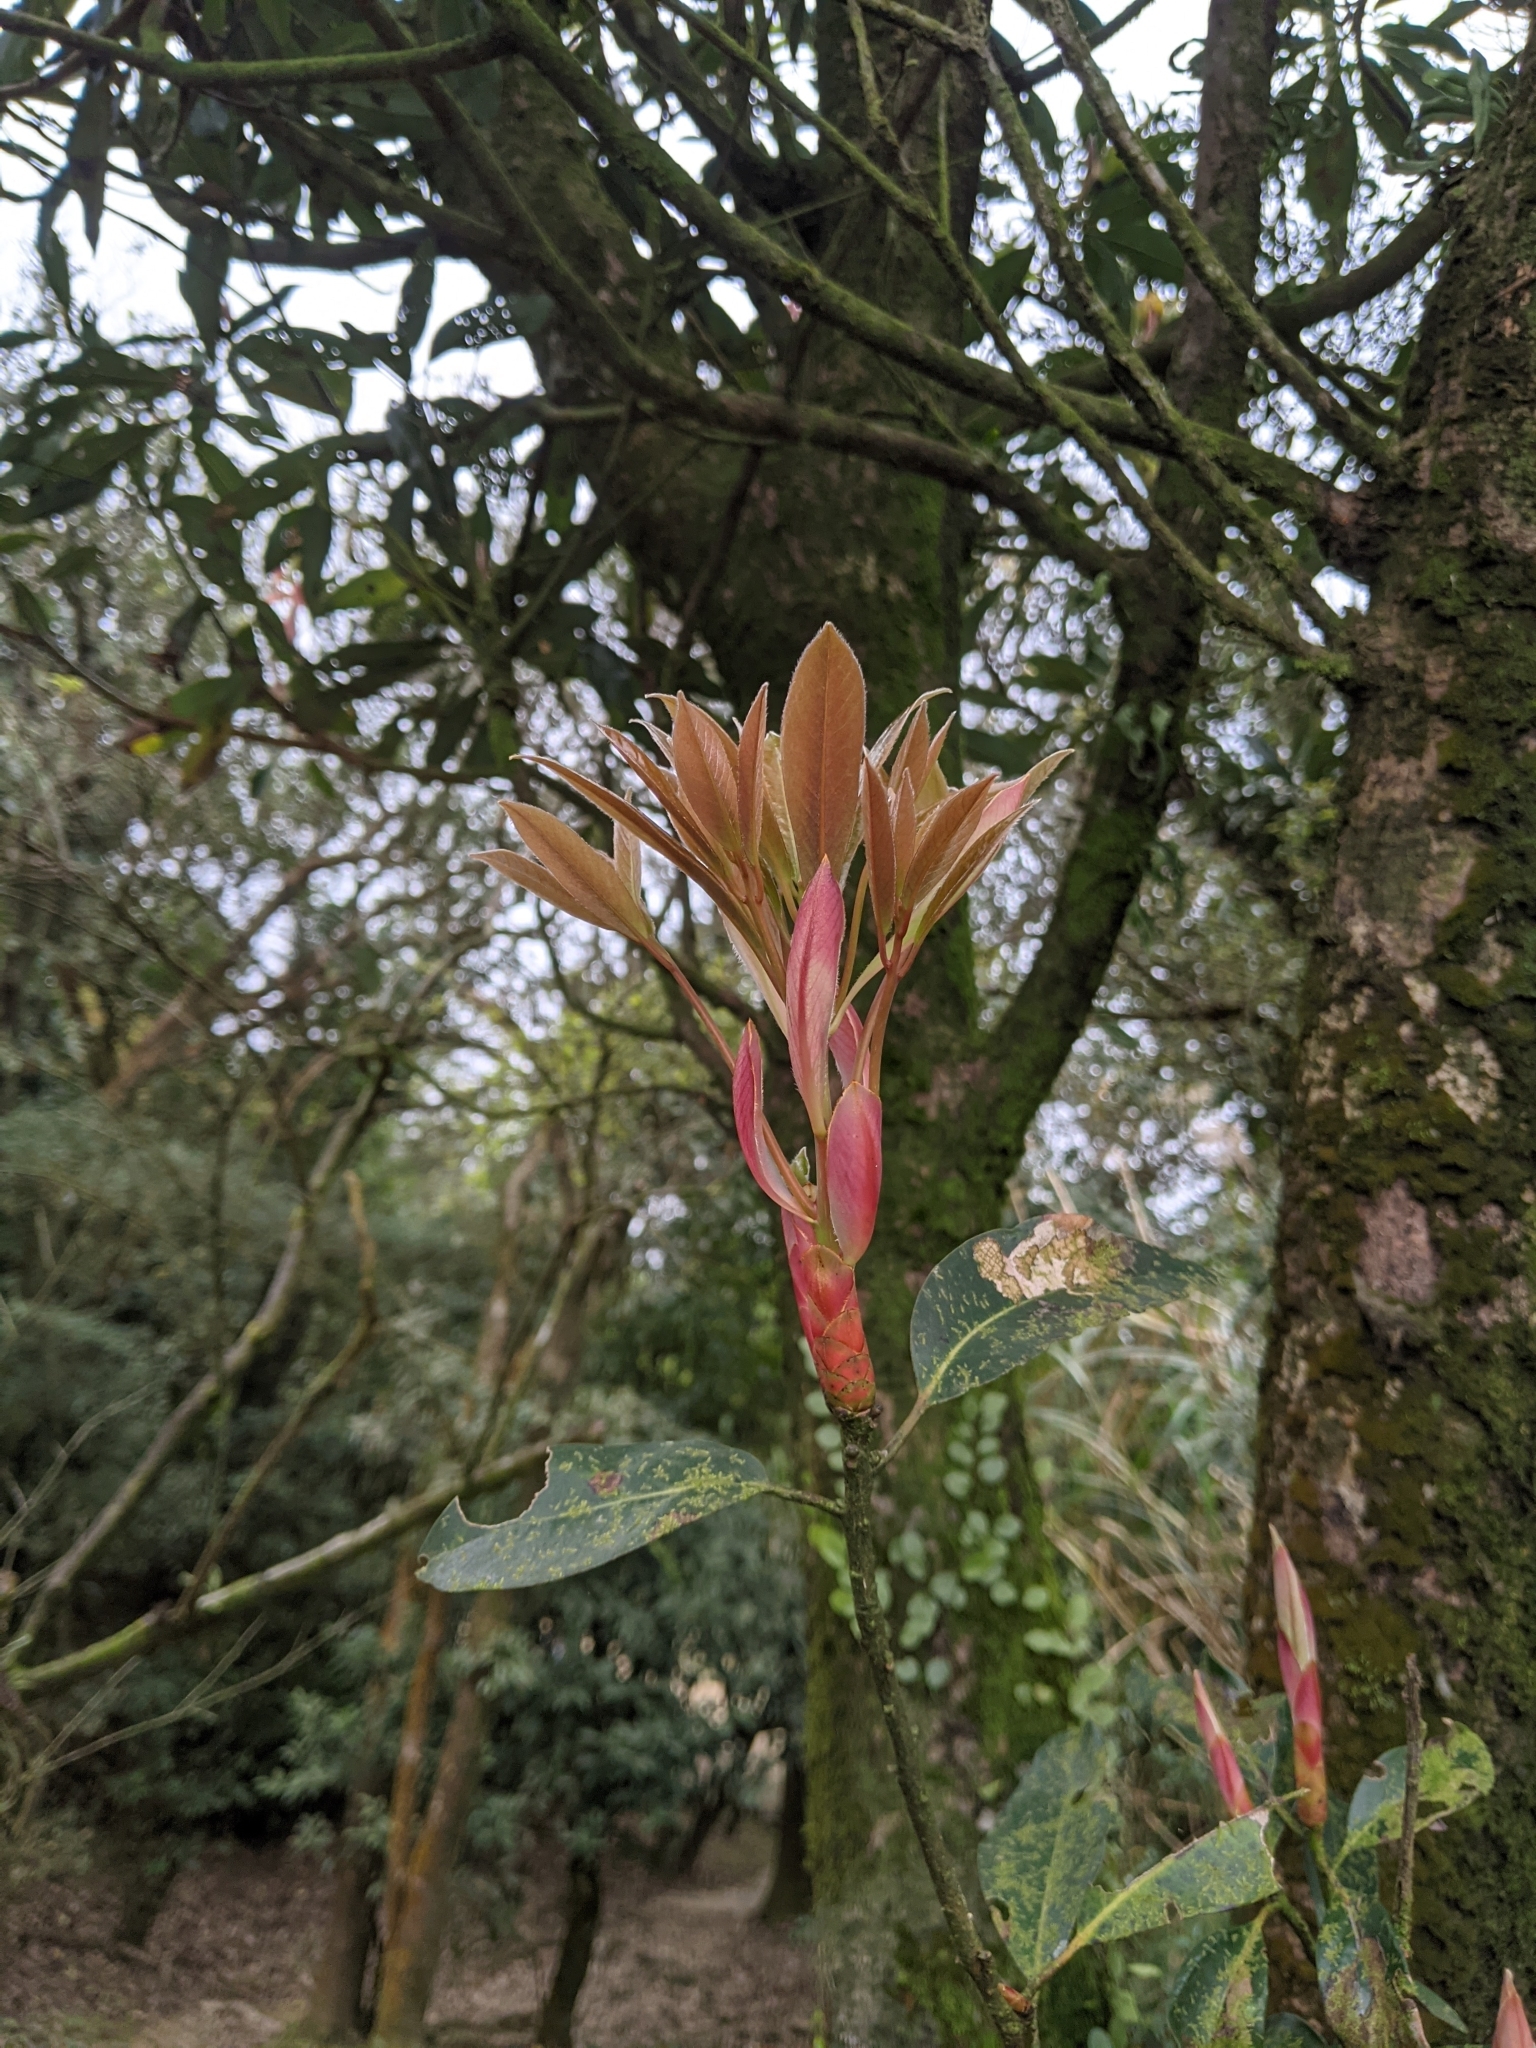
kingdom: Plantae
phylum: Tracheophyta
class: Magnoliopsida
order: Laurales
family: Lauraceae
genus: Machilus
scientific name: Machilus thunbergii
